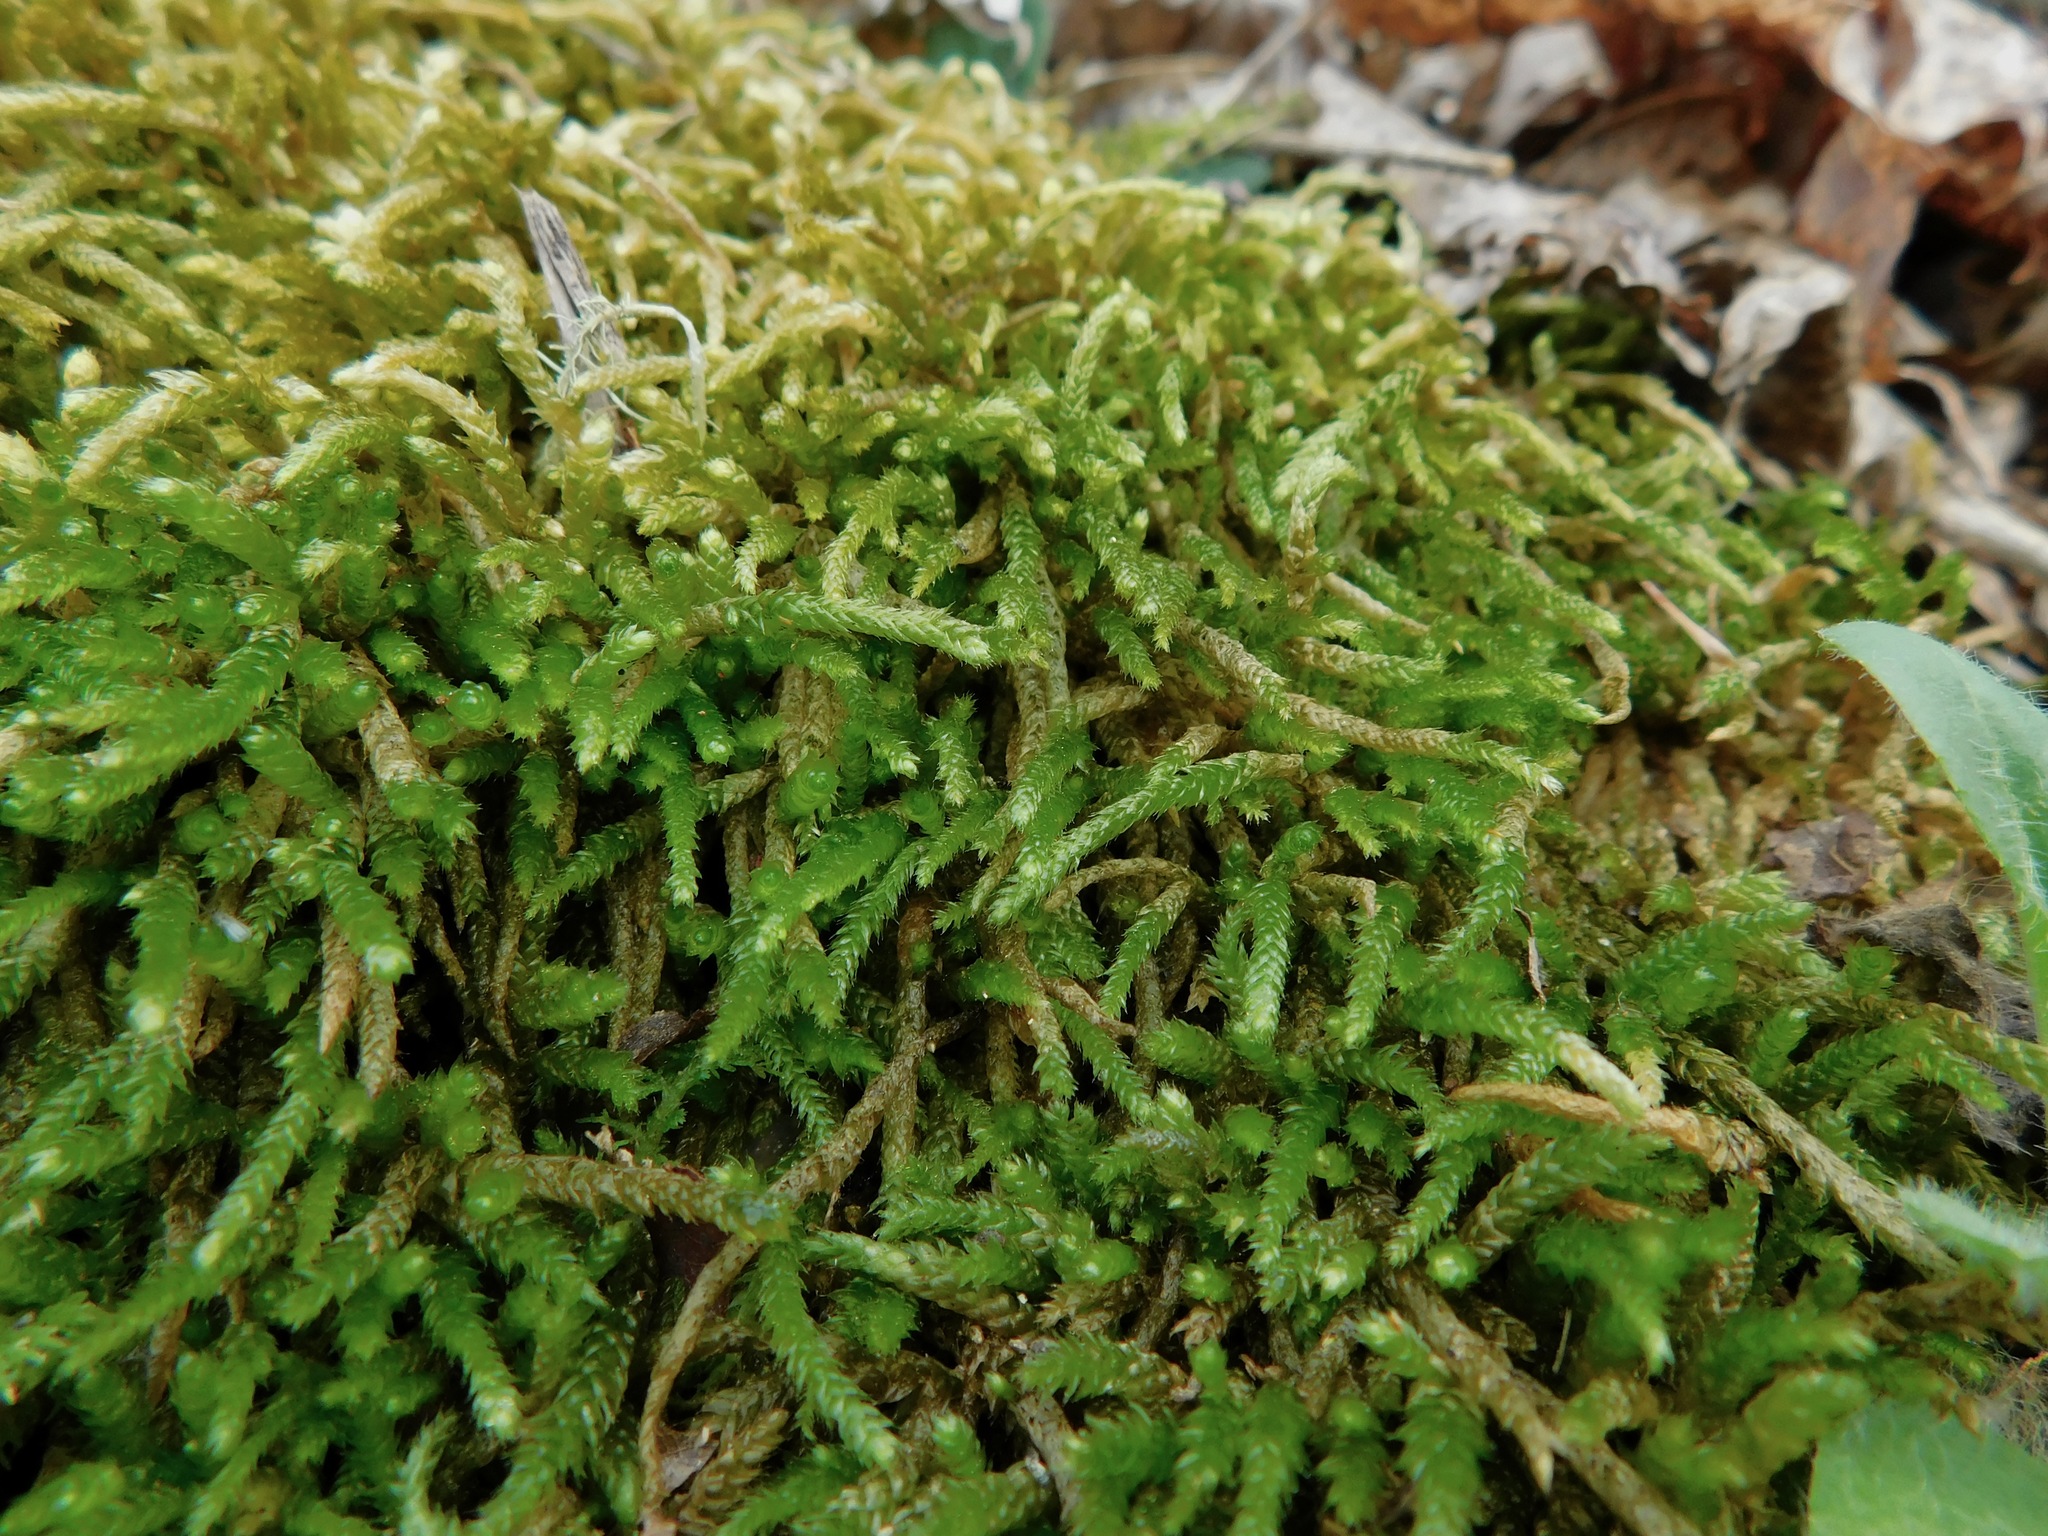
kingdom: Plantae
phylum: Bryophyta
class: Bryopsida
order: Hypnales
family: Entodontaceae
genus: Entodon
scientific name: Entodon seductrix
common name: Round-stemmed entodon moss
